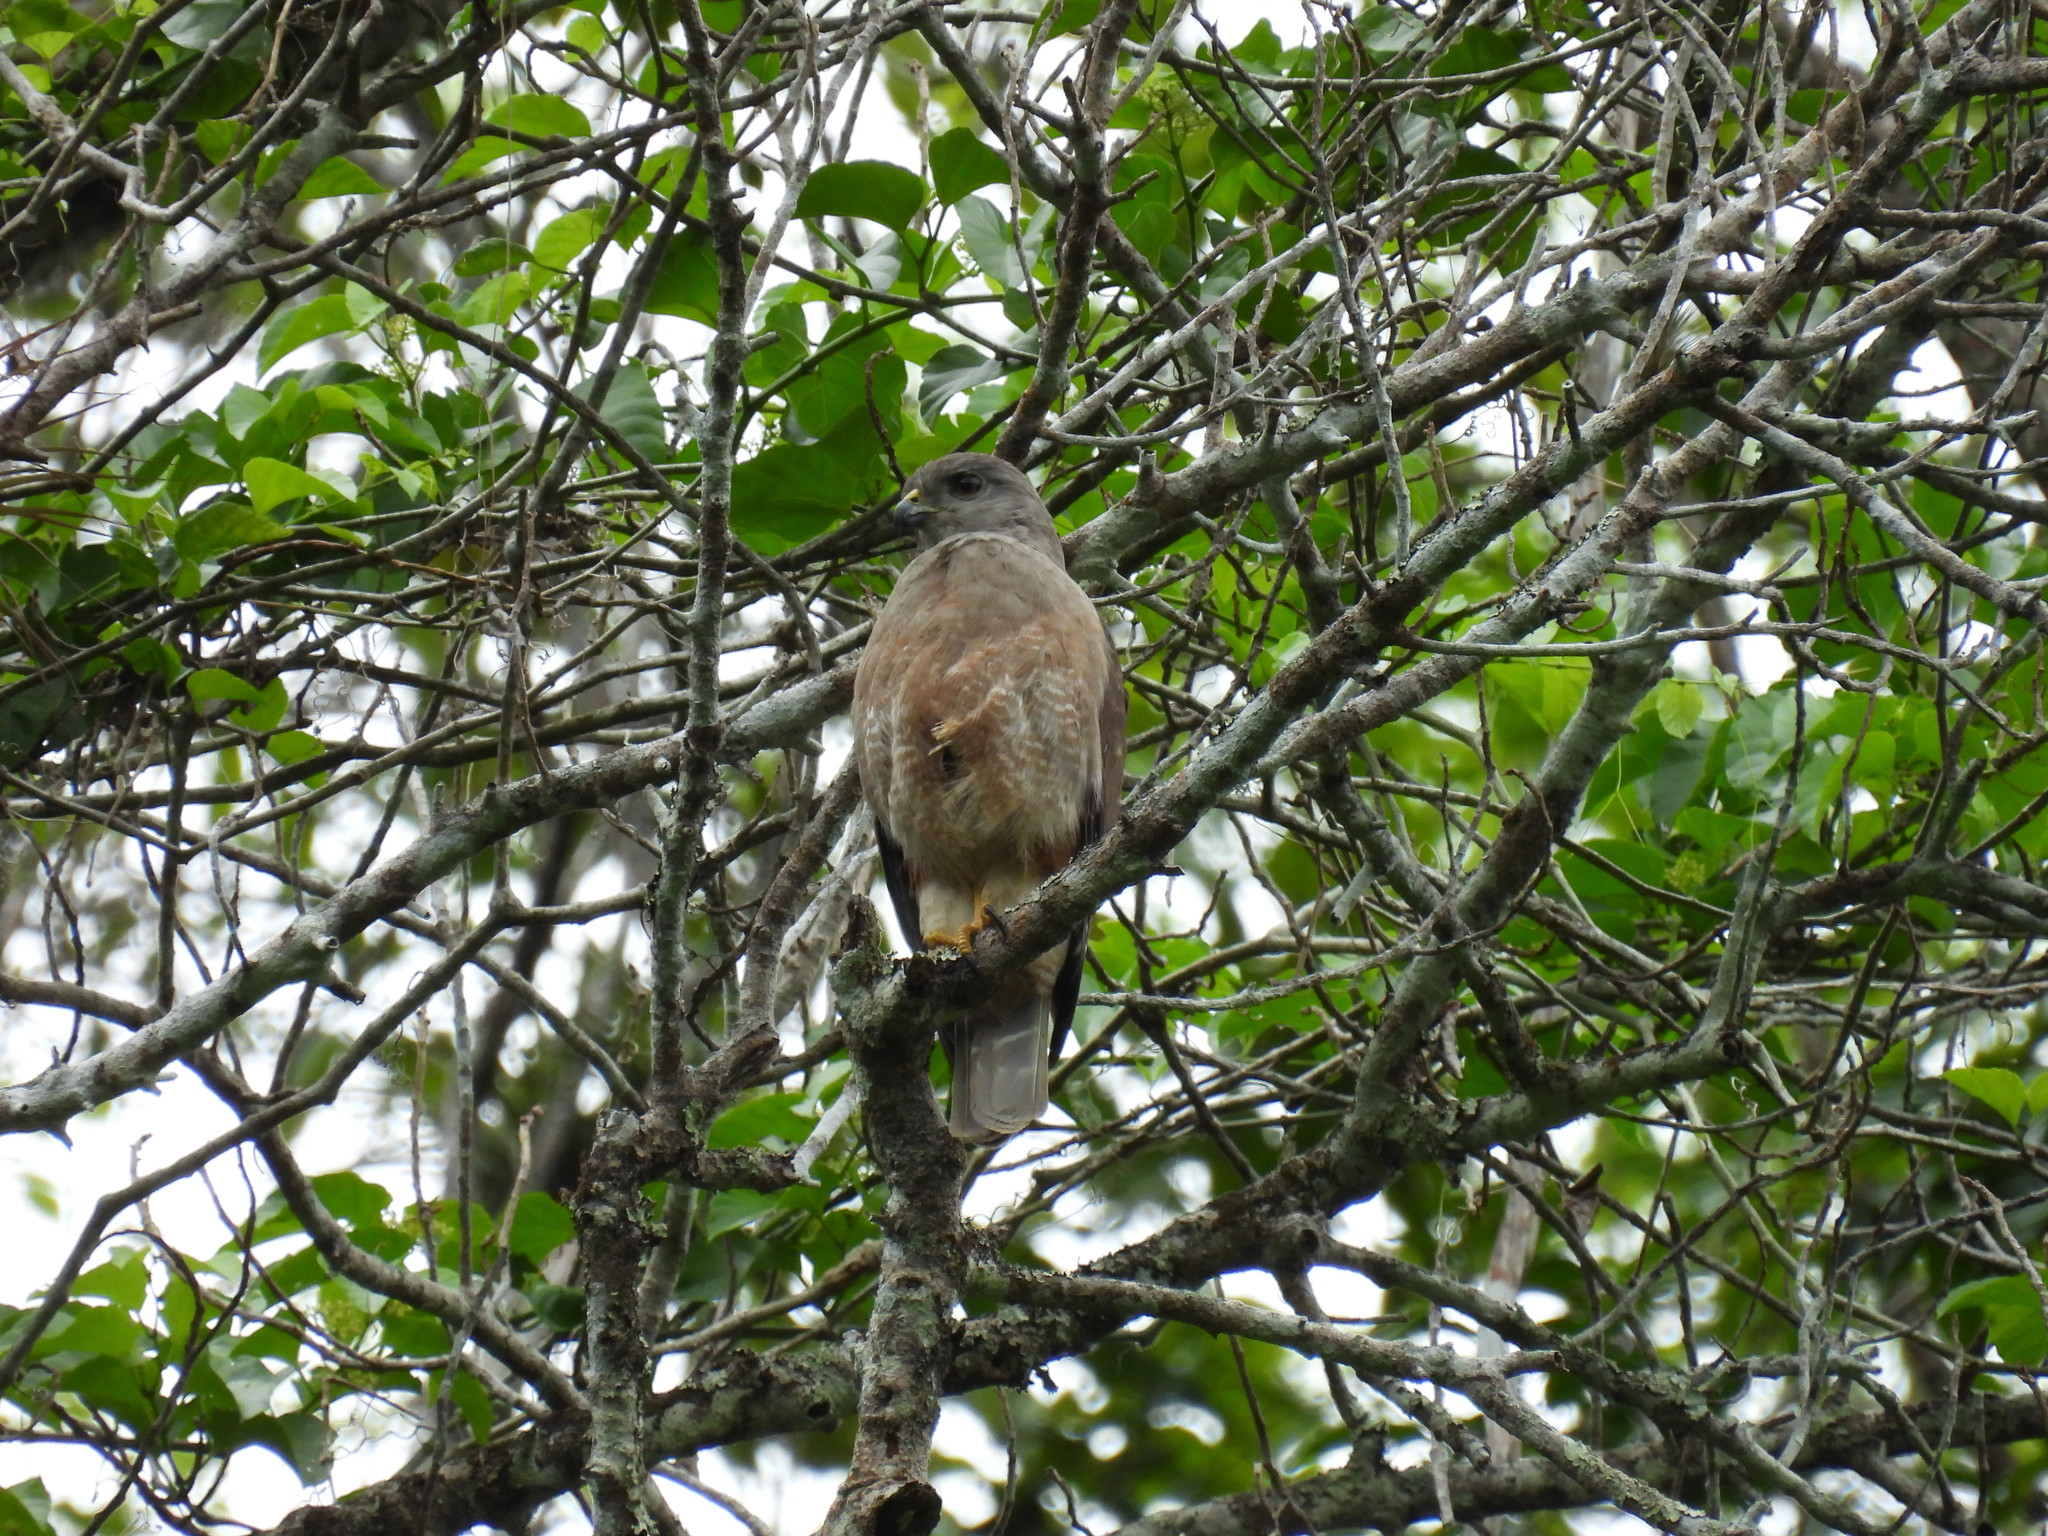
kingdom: Animalia
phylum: Chordata
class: Aves
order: Accipitriformes
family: Accipitridae
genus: Buteo
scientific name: Buteo ridgwayi
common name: Ridgway's hawk
